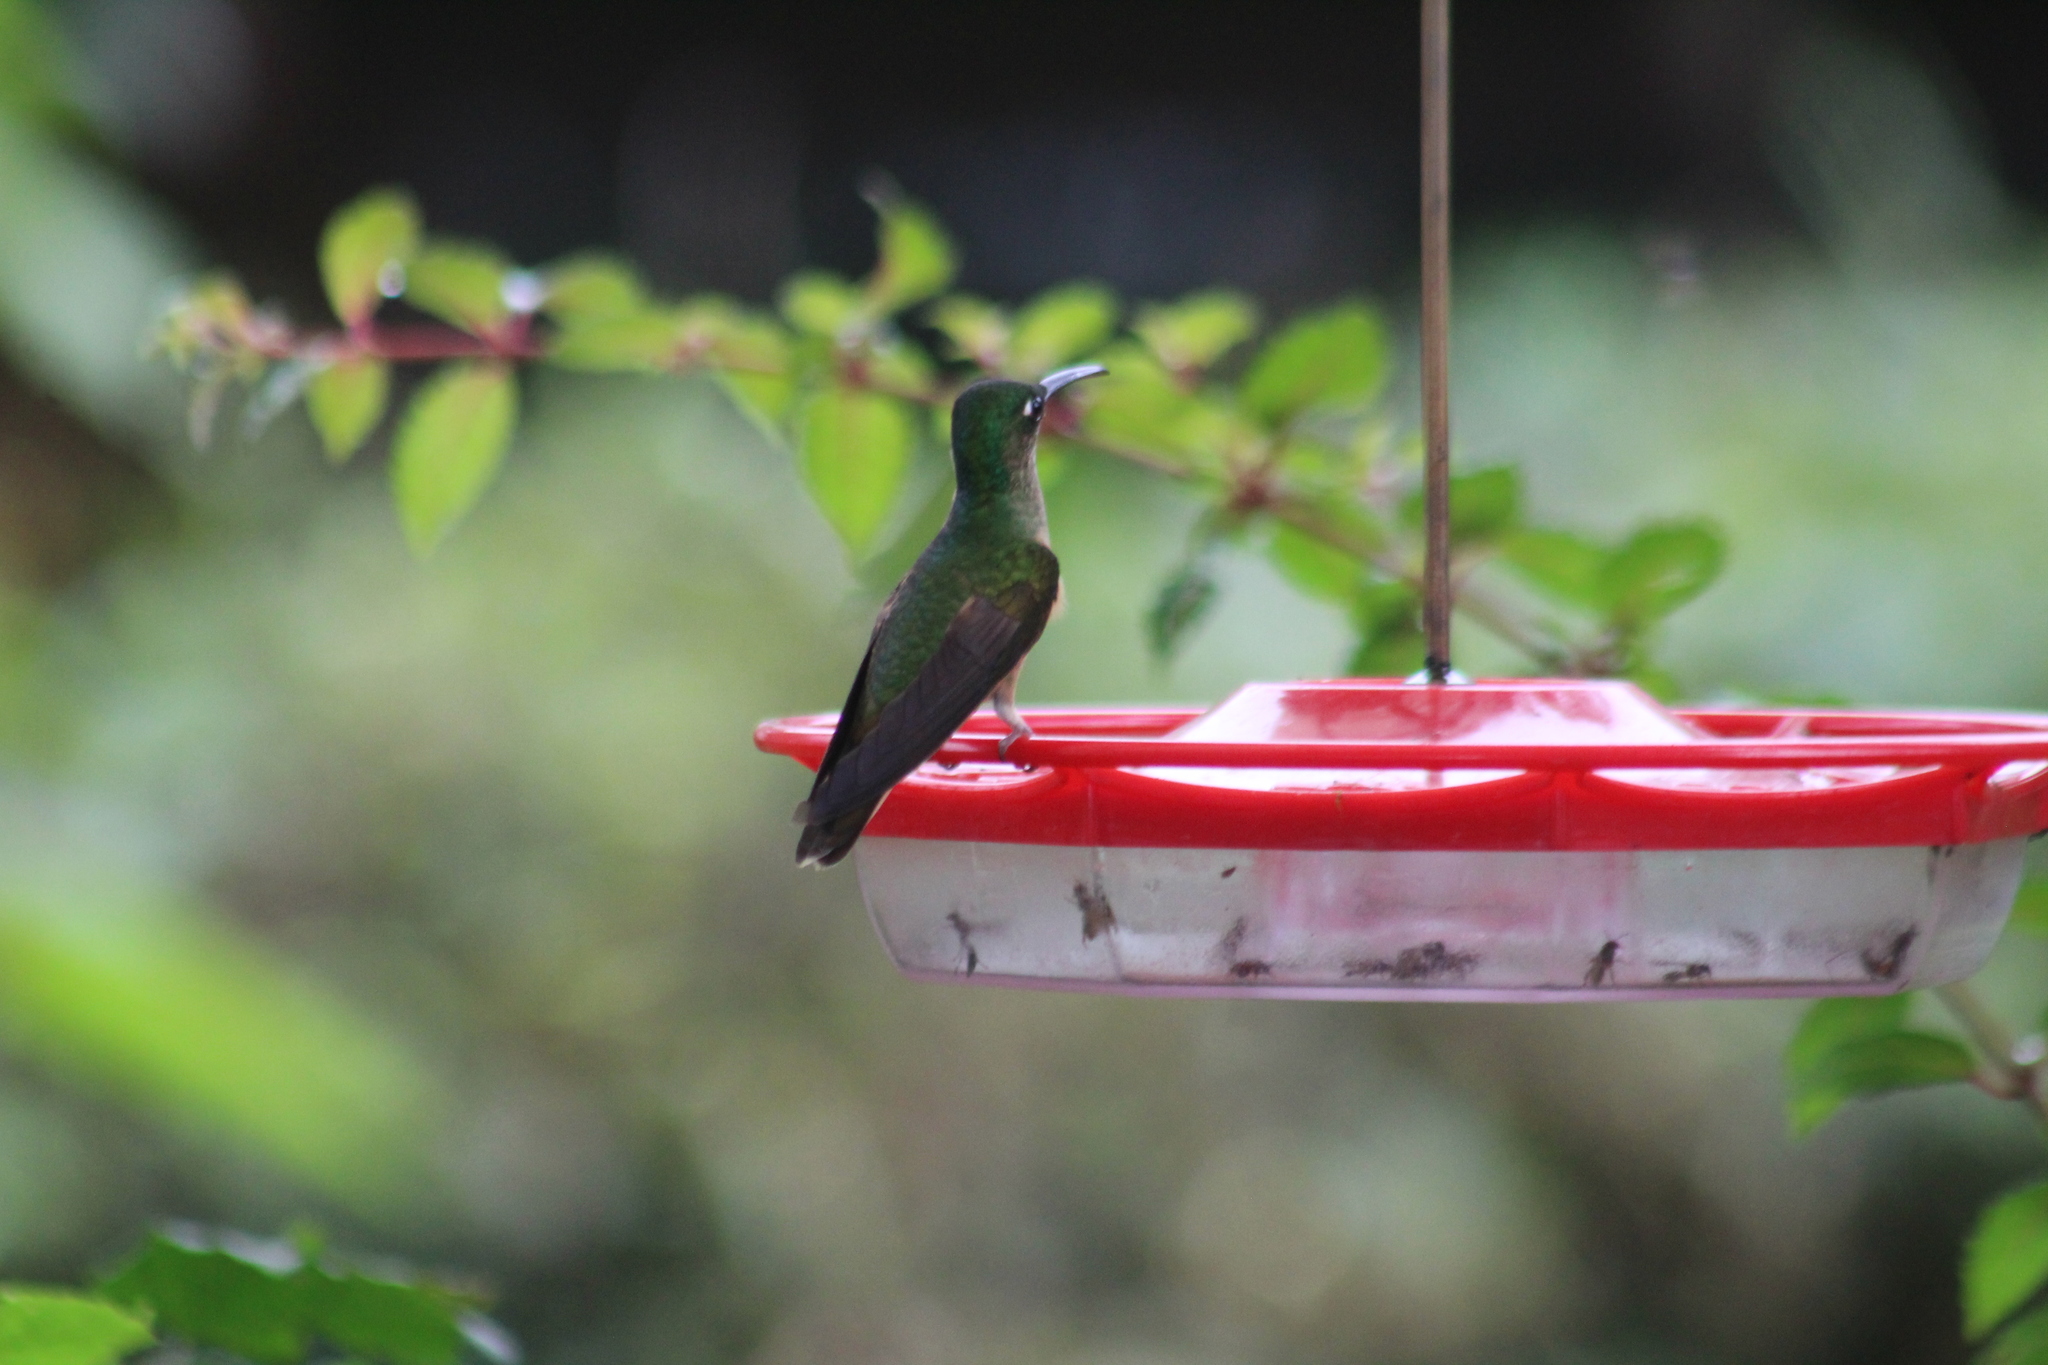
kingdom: Animalia
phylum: Chordata
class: Aves
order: Apodiformes
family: Trochilidae
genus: Heliodoxa
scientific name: Heliodoxa rubinoides
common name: Fawn-breasted brilliant
